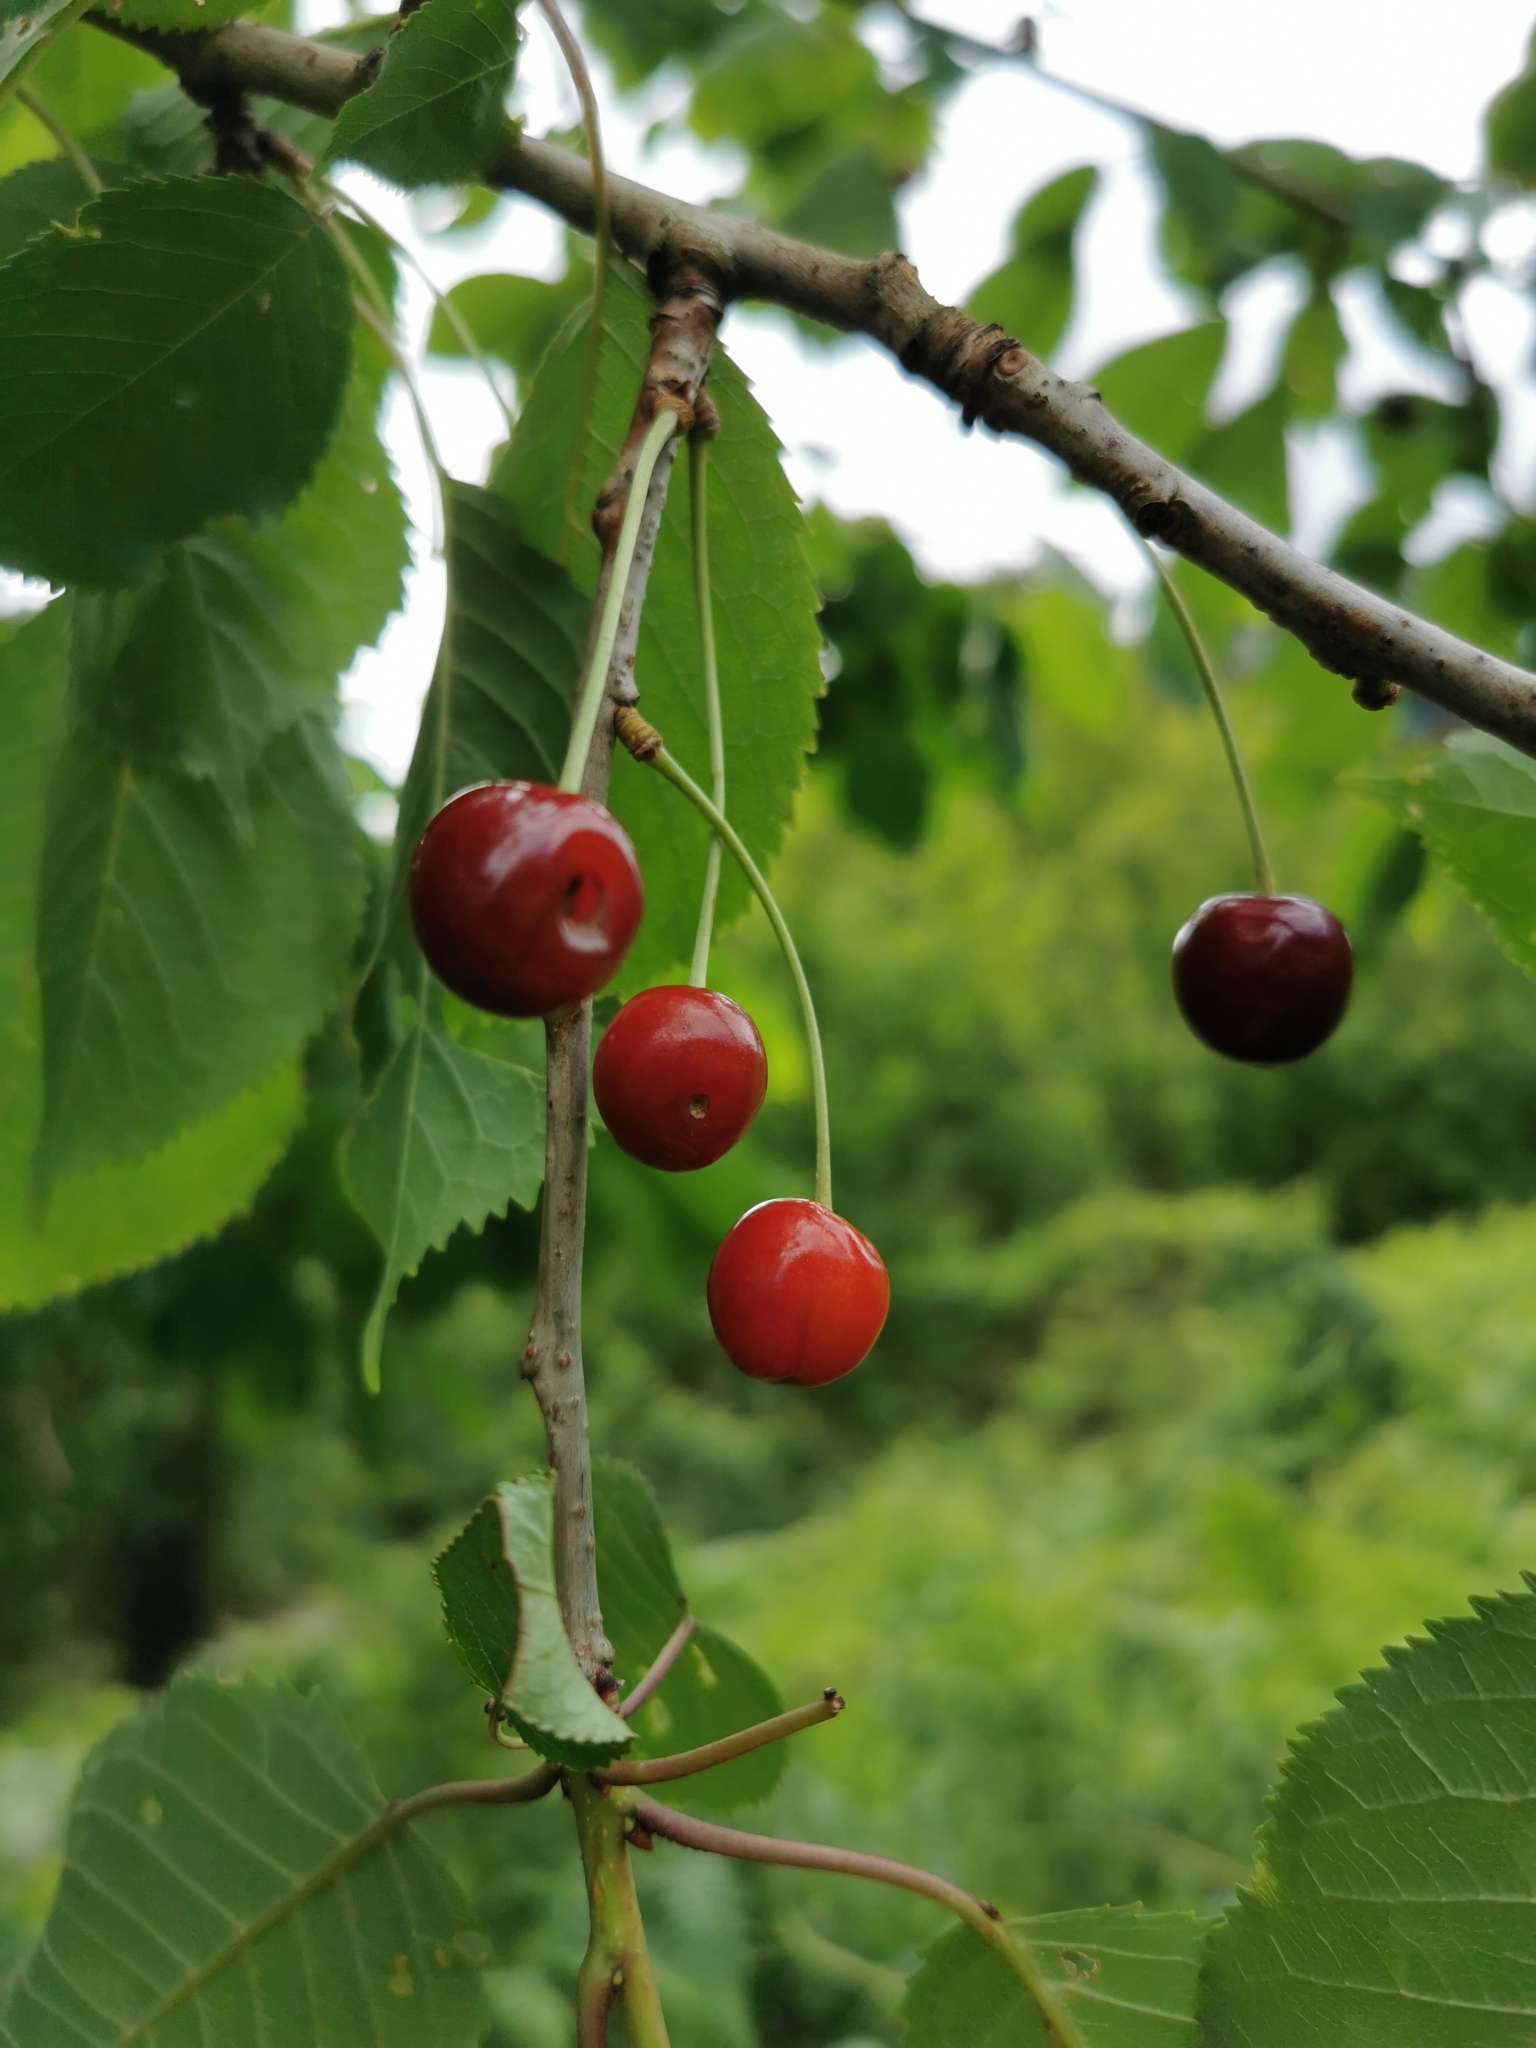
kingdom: Plantae
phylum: Tracheophyta
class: Magnoliopsida
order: Rosales
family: Rosaceae
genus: Prunus
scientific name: Prunus avium
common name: Sweet cherry
